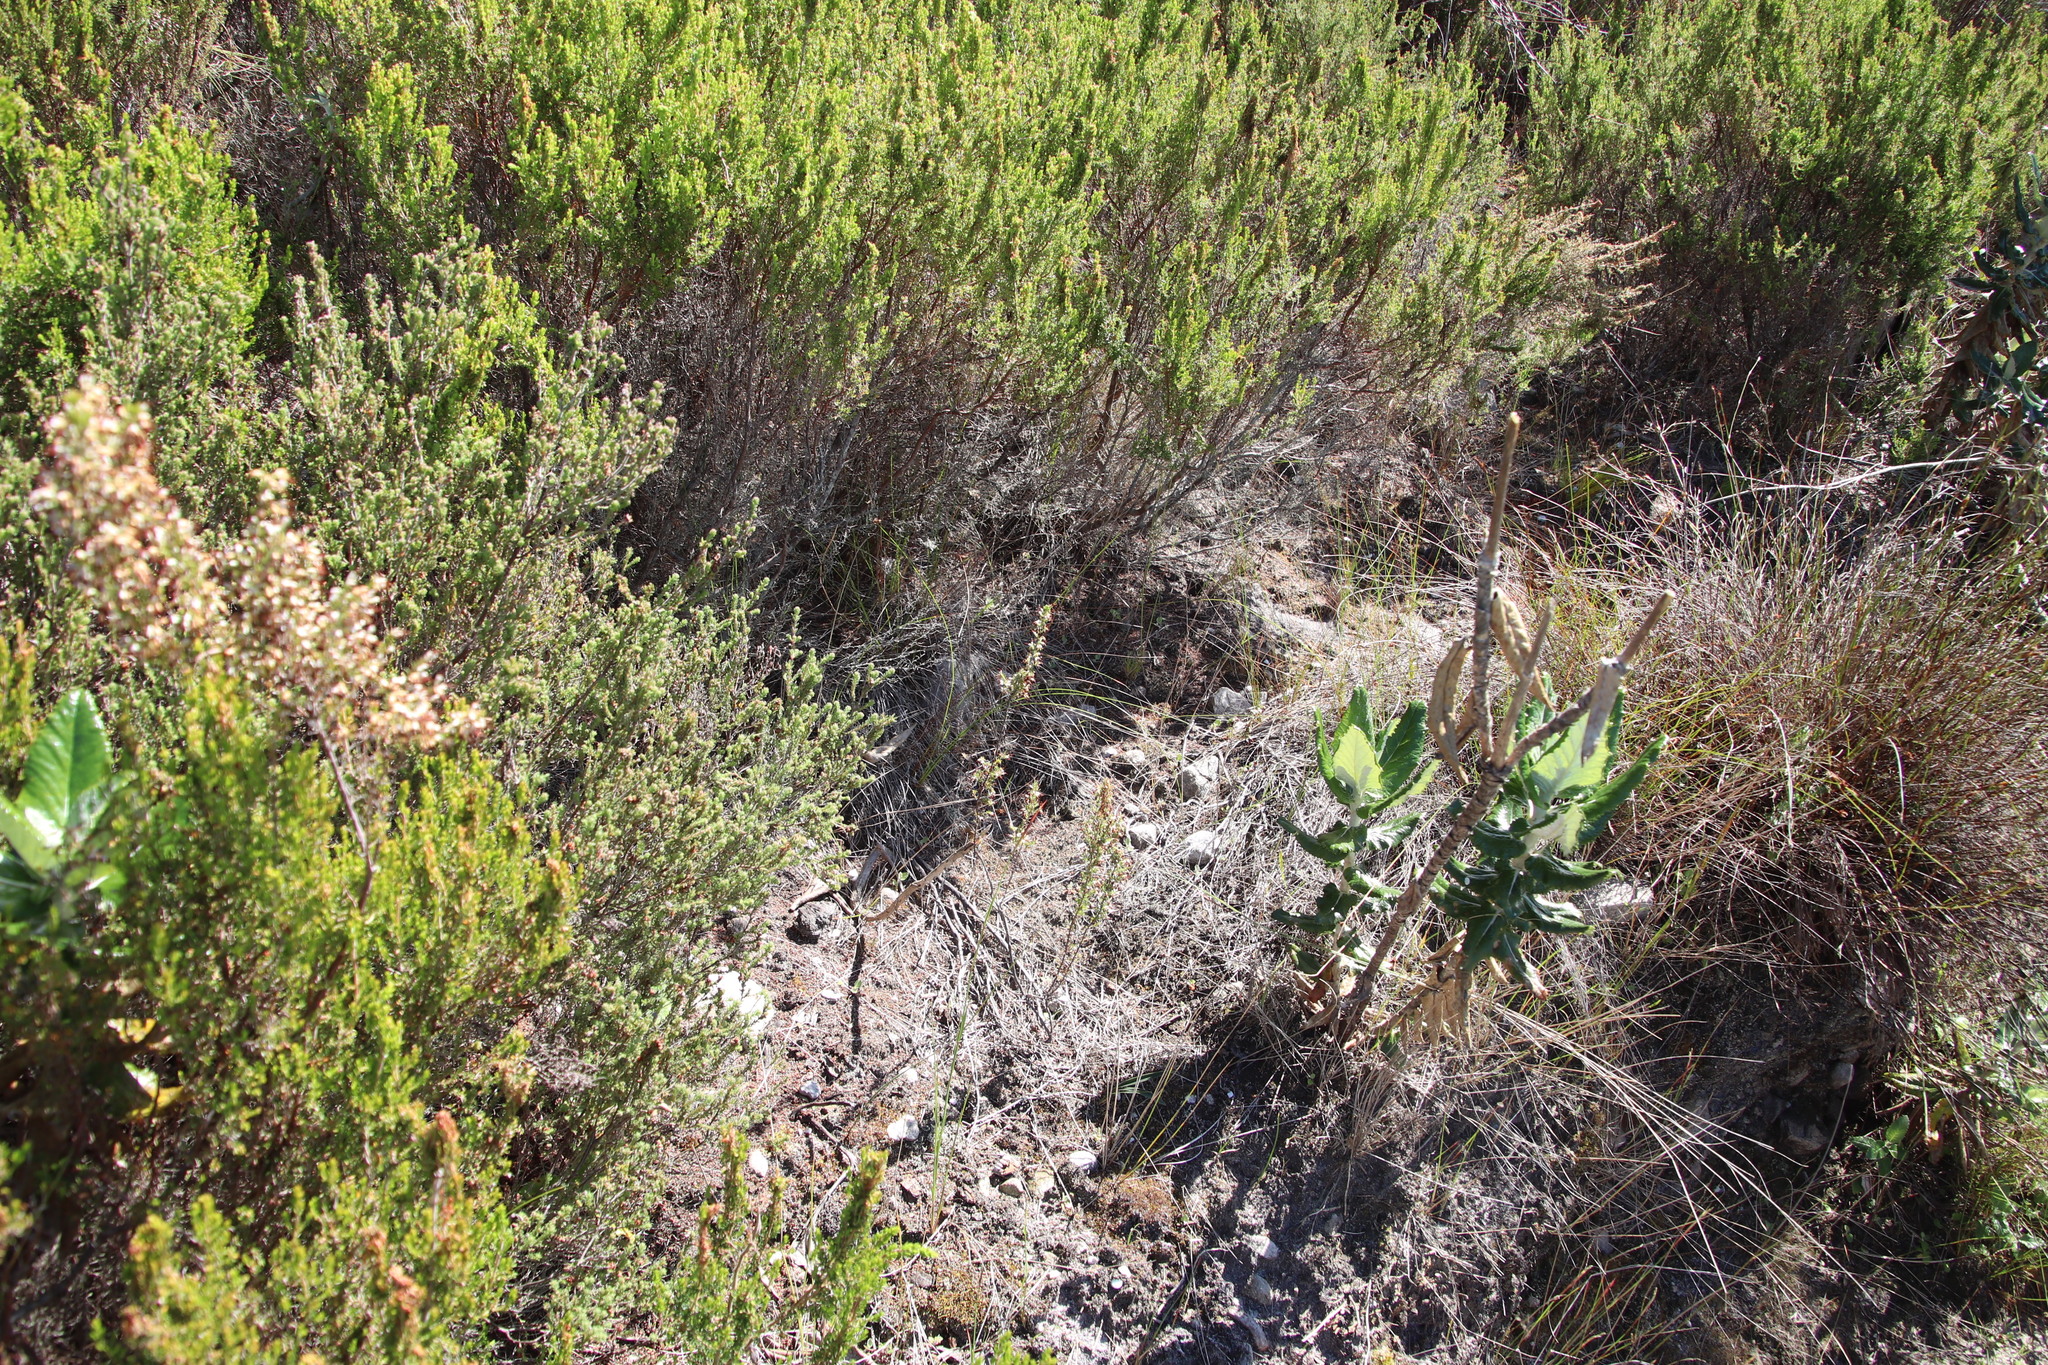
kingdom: Plantae
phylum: Tracheophyta
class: Magnoliopsida
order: Ericales
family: Ericaceae
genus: Erica
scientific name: Erica imbricata
